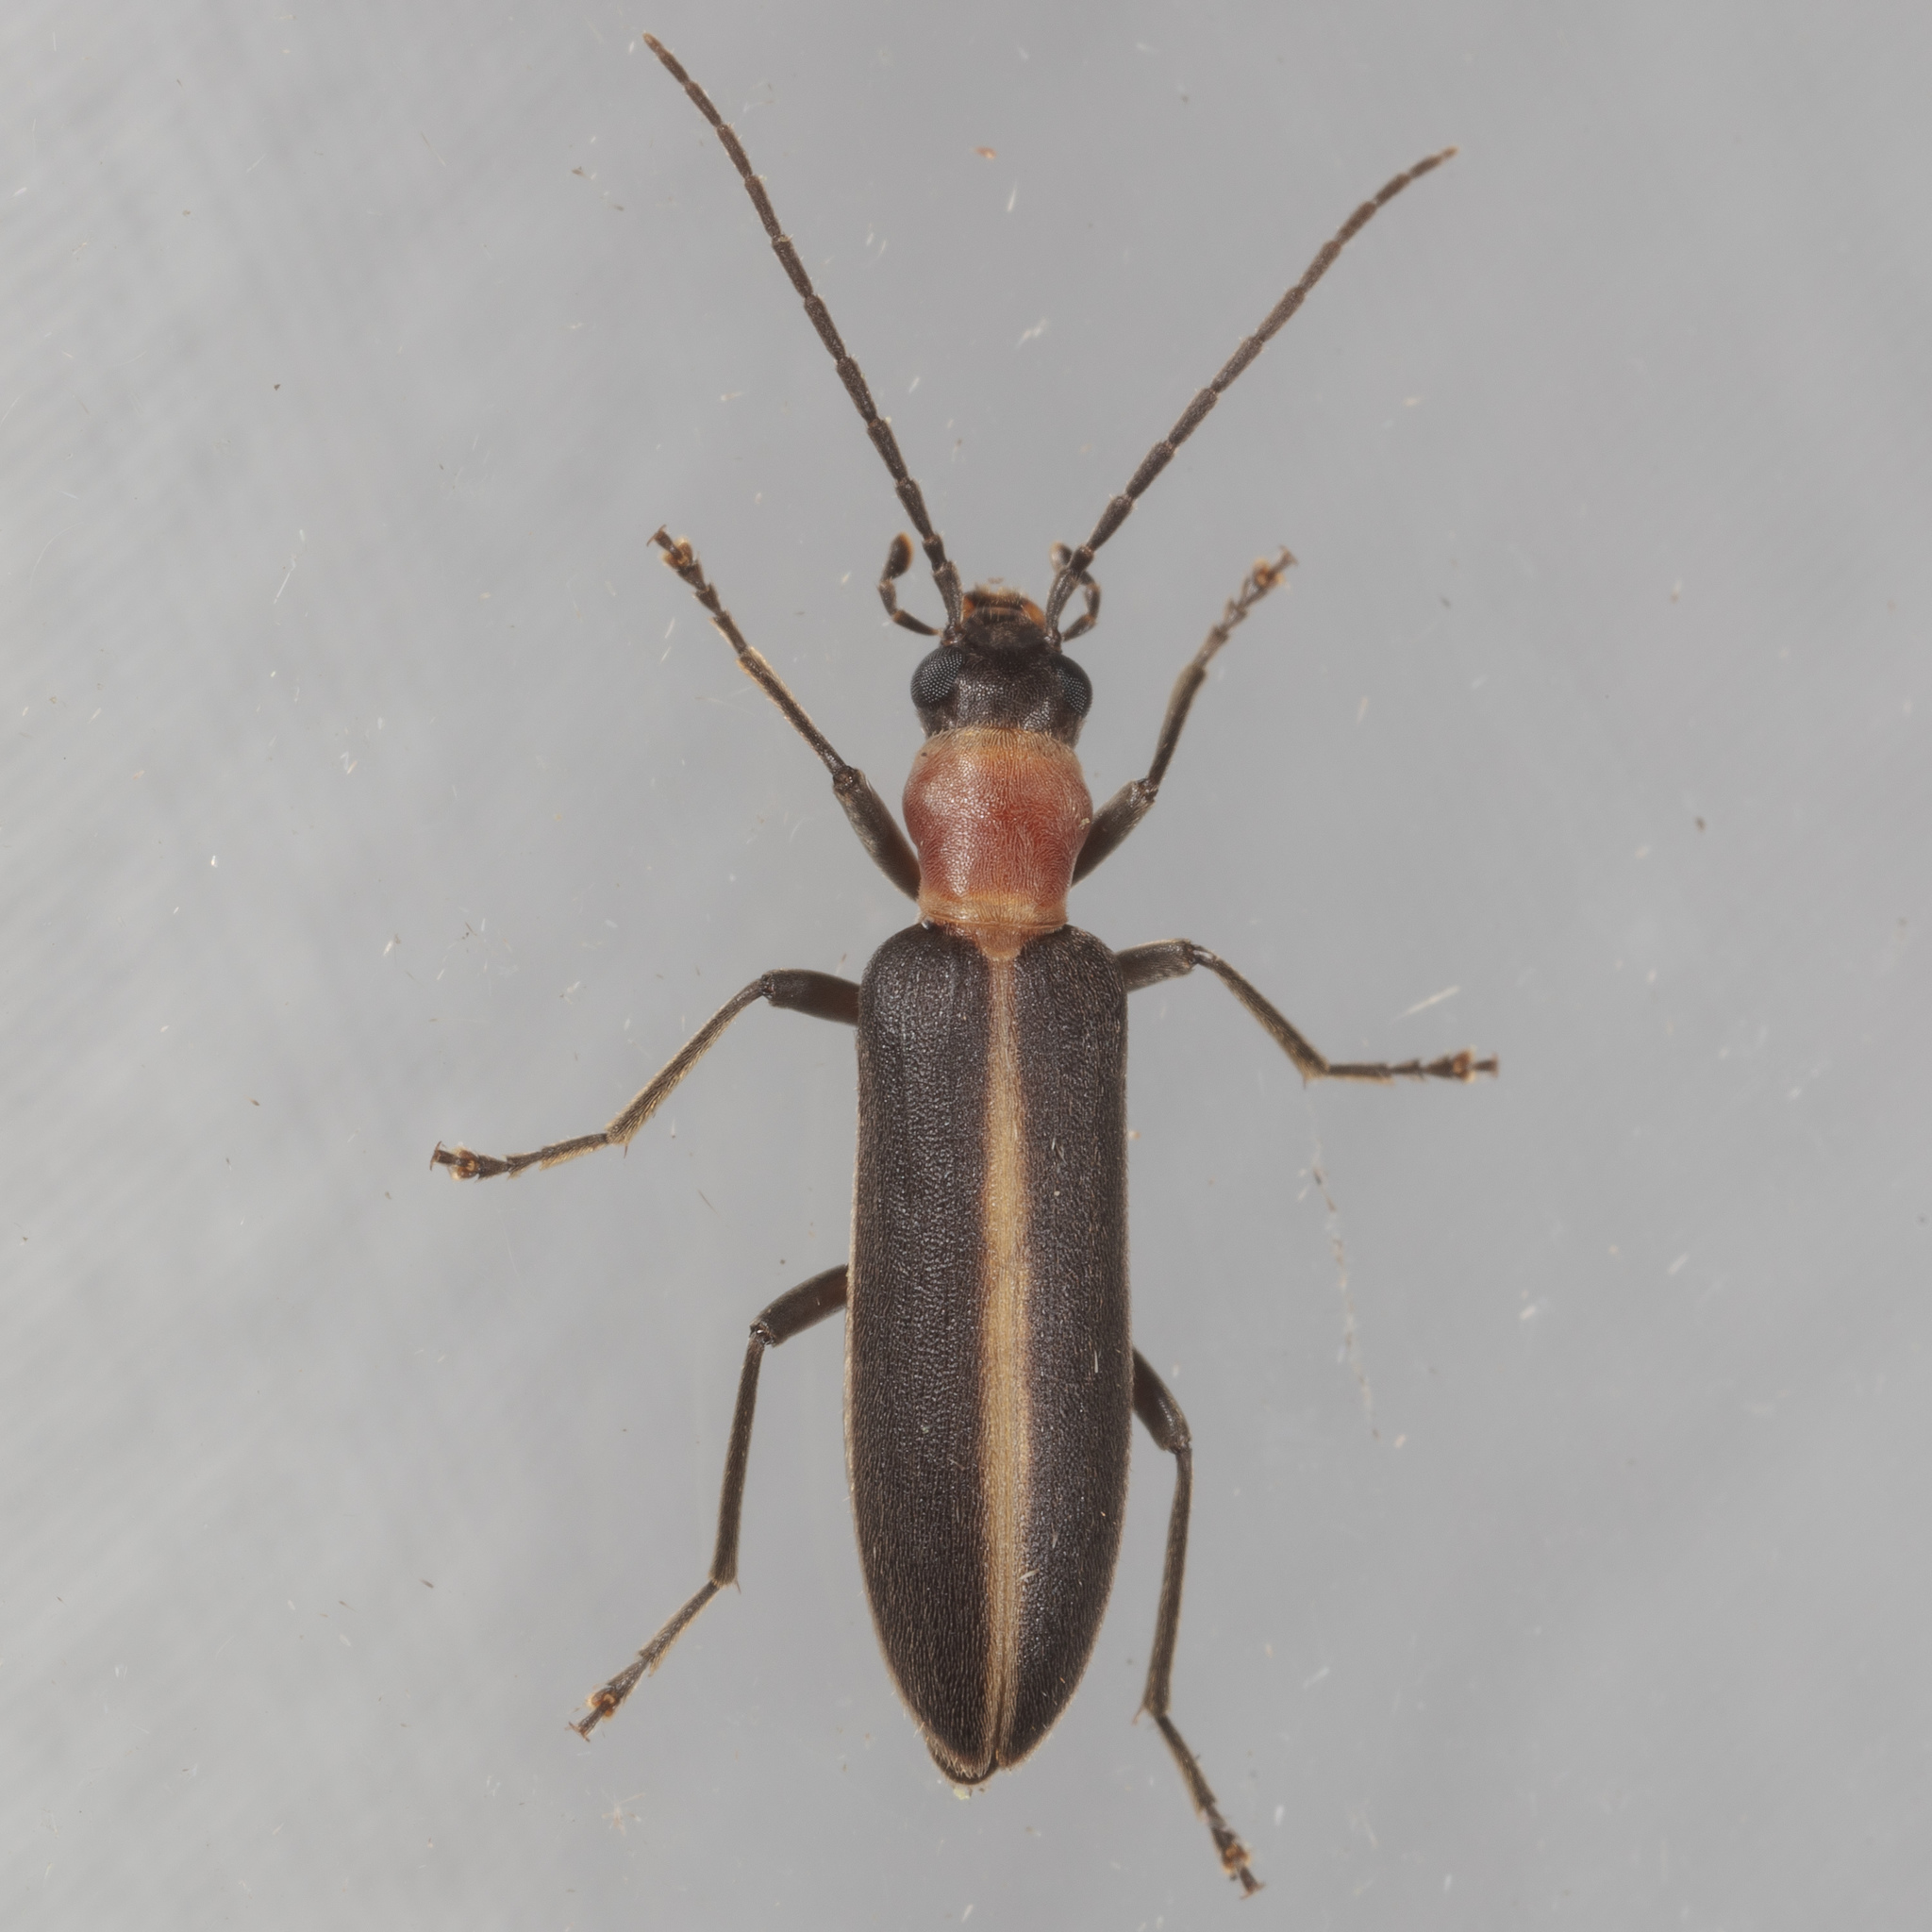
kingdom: Animalia
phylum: Arthropoda
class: Insecta
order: Coleoptera
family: Oedemeridae
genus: Oxycopis
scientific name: Oxycopis mimetica
